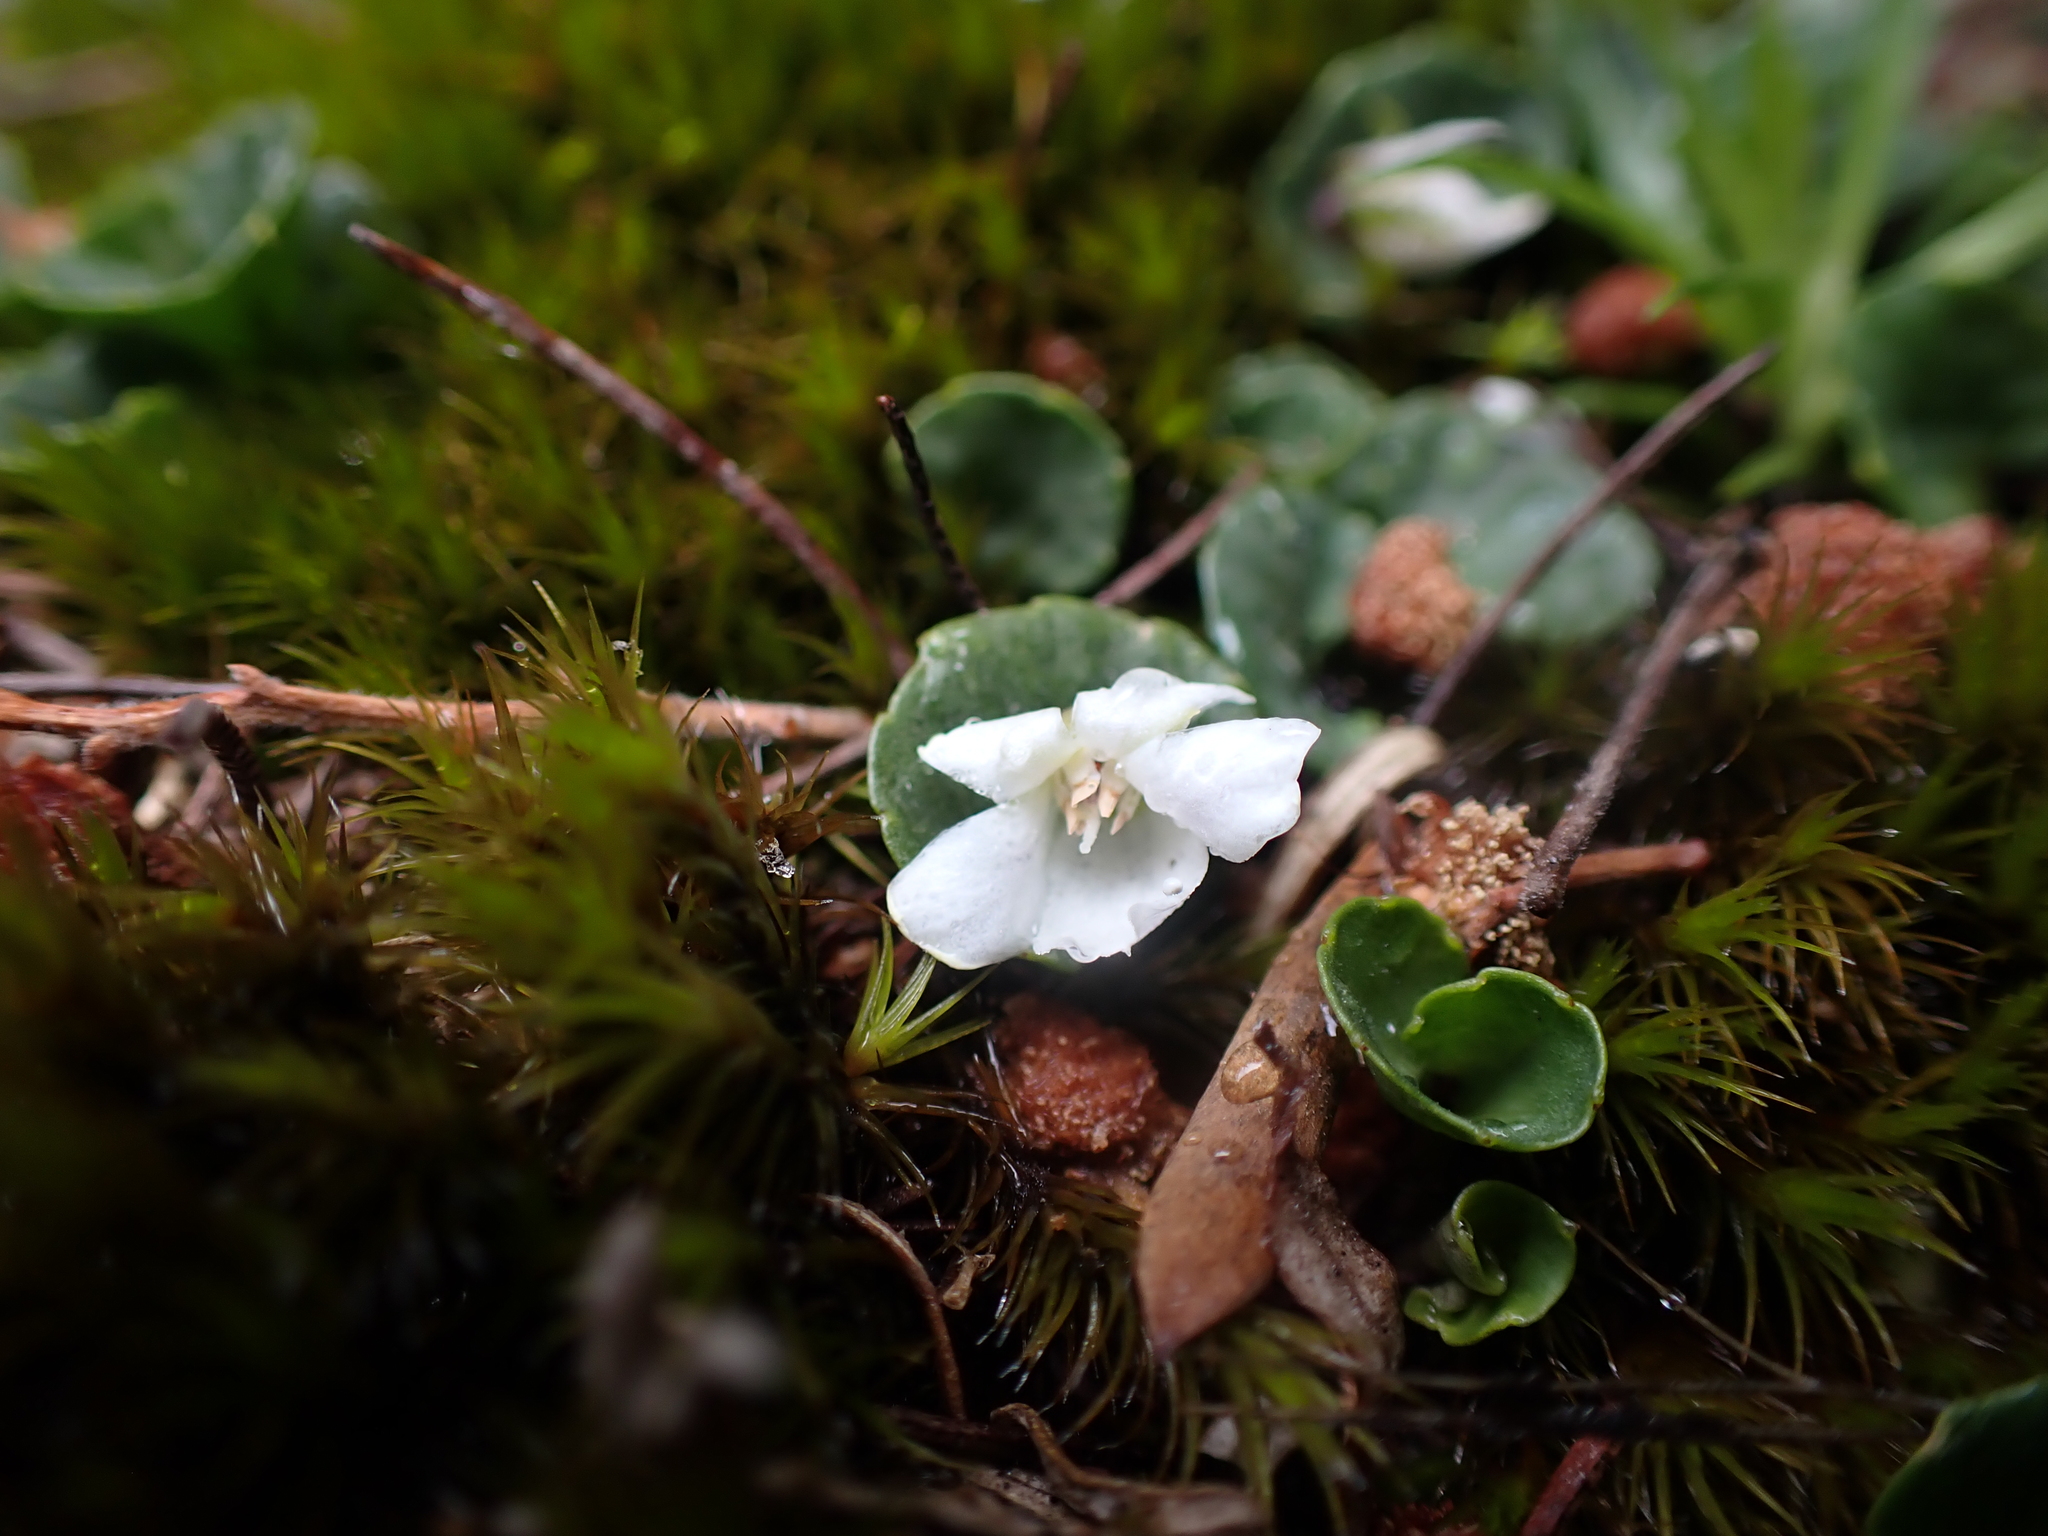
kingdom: Plantae
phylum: Tracheophyta
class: Magnoliopsida
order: Malpighiales
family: Violaceae
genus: Viola
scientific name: Viola curtisiae
